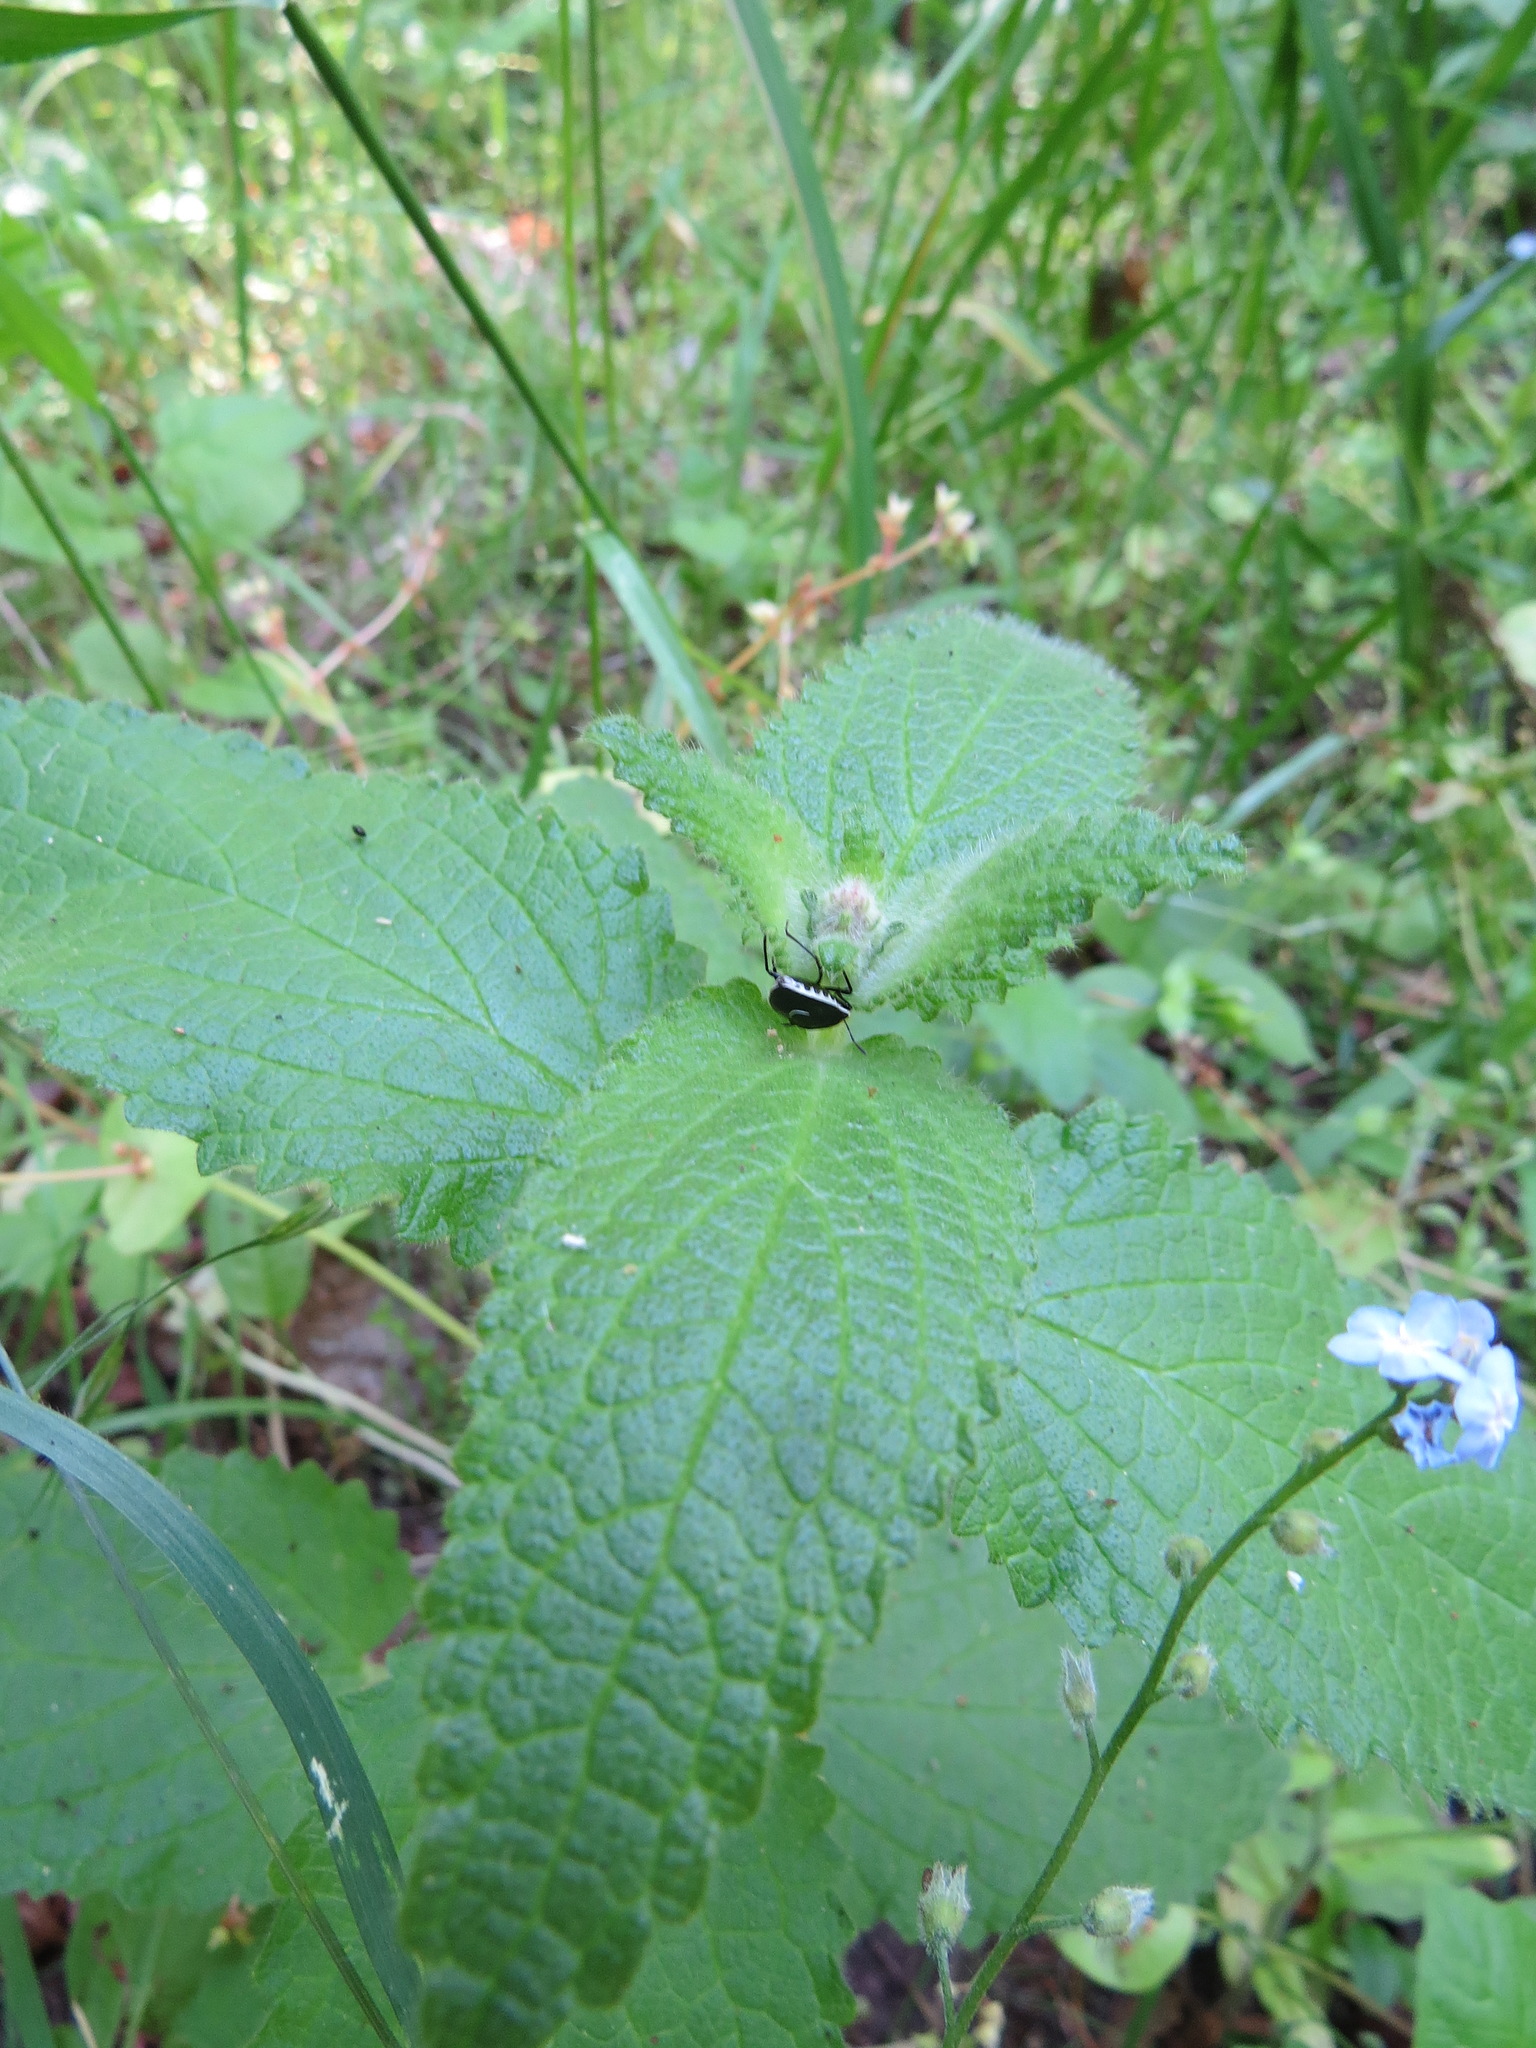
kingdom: Animalia
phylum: Arthropoda
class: Insecta
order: Hemiptera
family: Pentatomidae
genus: Cosmopepla
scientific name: Cosmopepla conspicillaris
